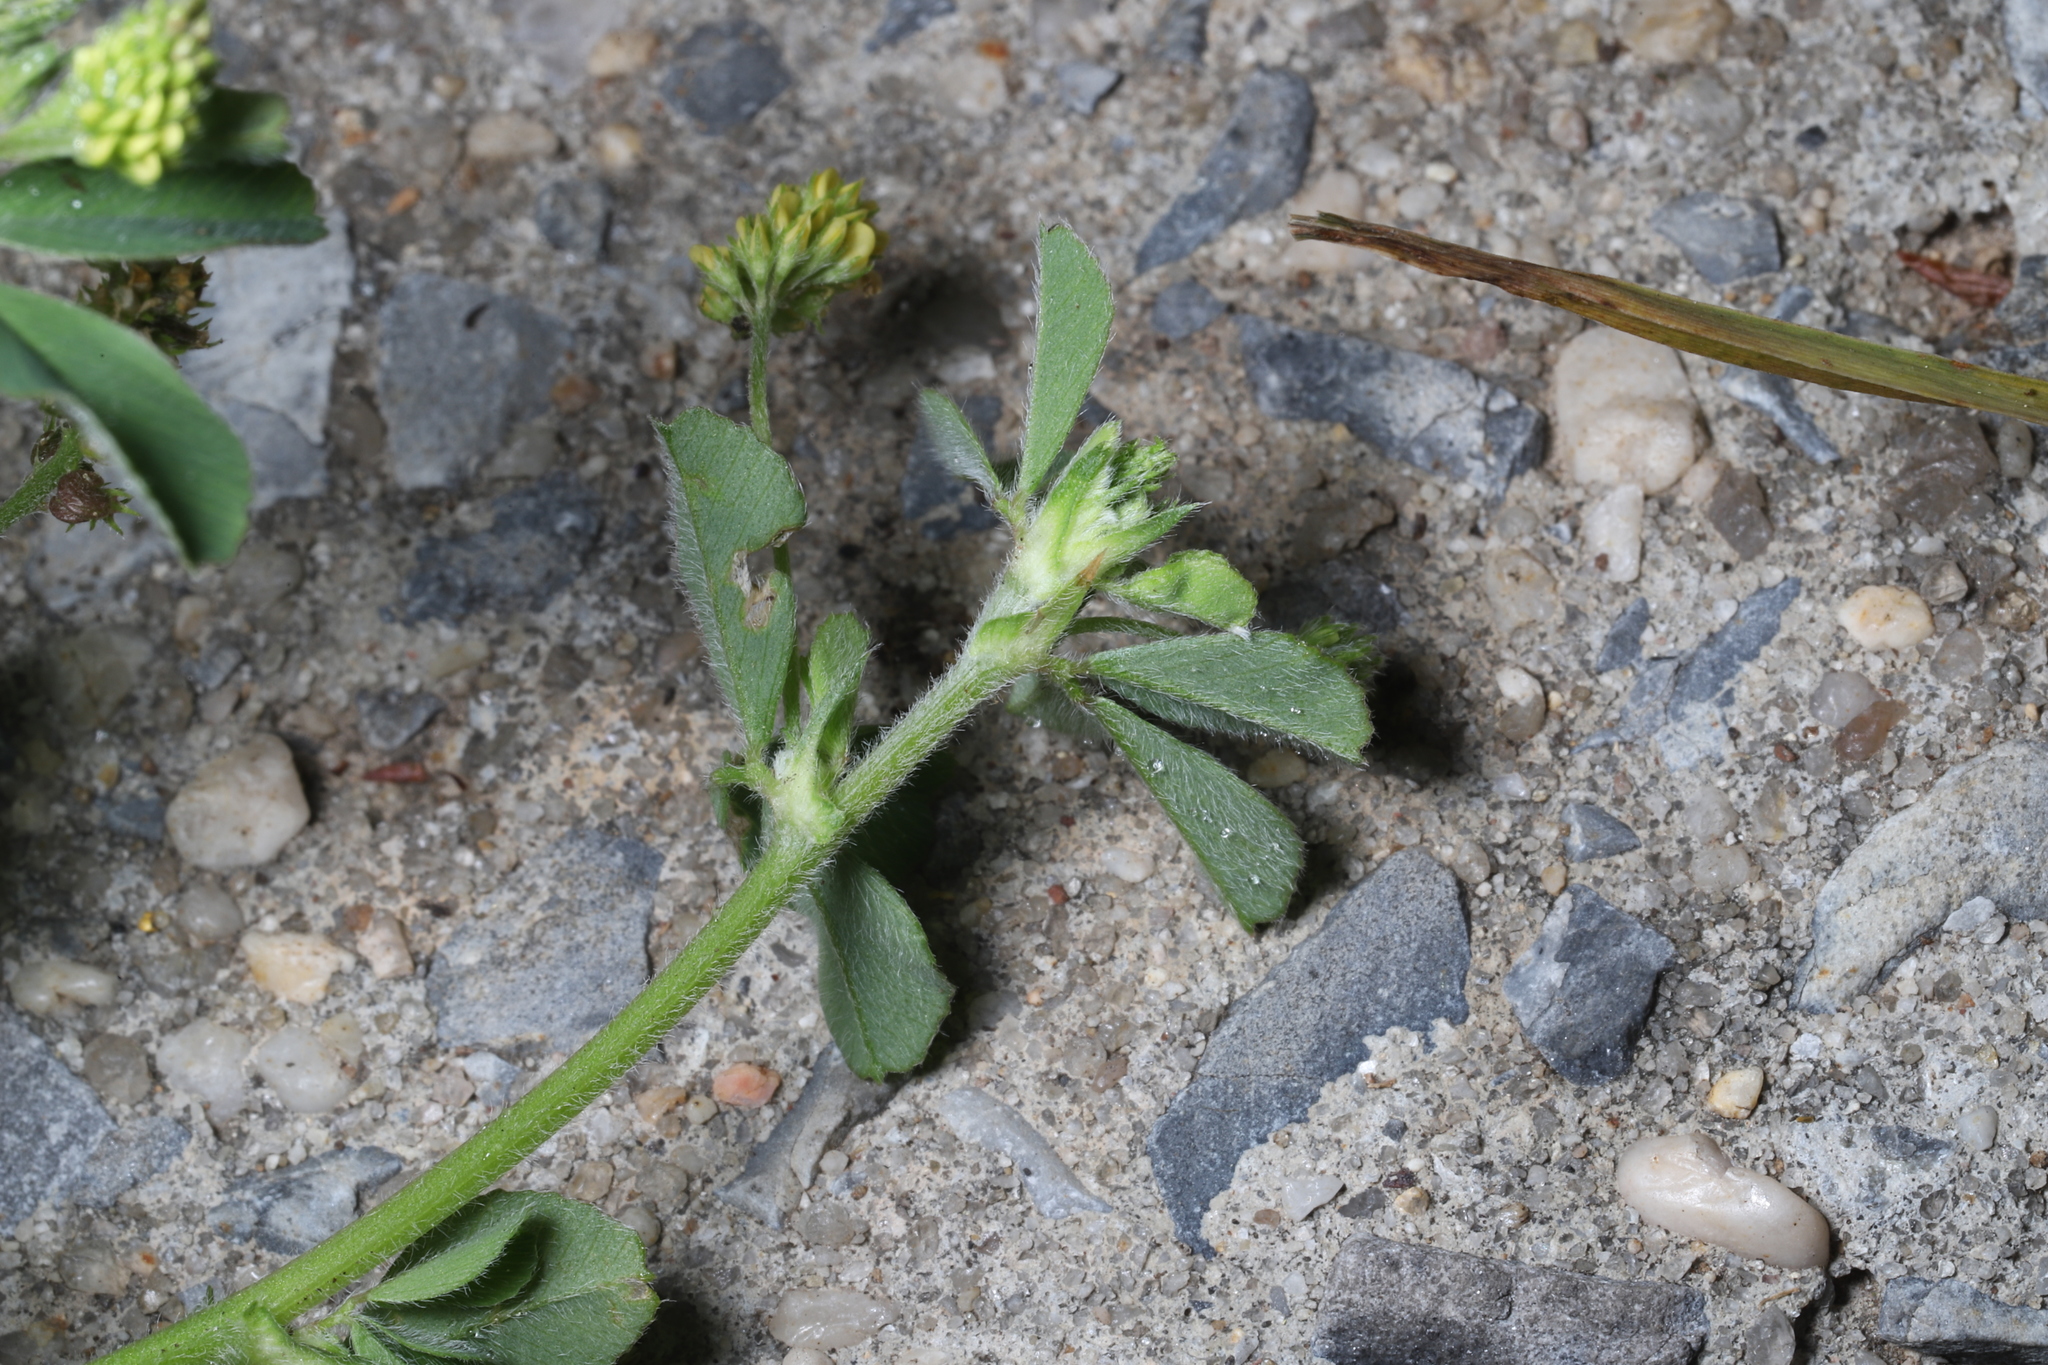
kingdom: Plantae
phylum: Tracheophyta
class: Magnoliopsida
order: Fabales
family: Fabaceae
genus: Medicago
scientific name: Medicago lupulina
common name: Black medick
